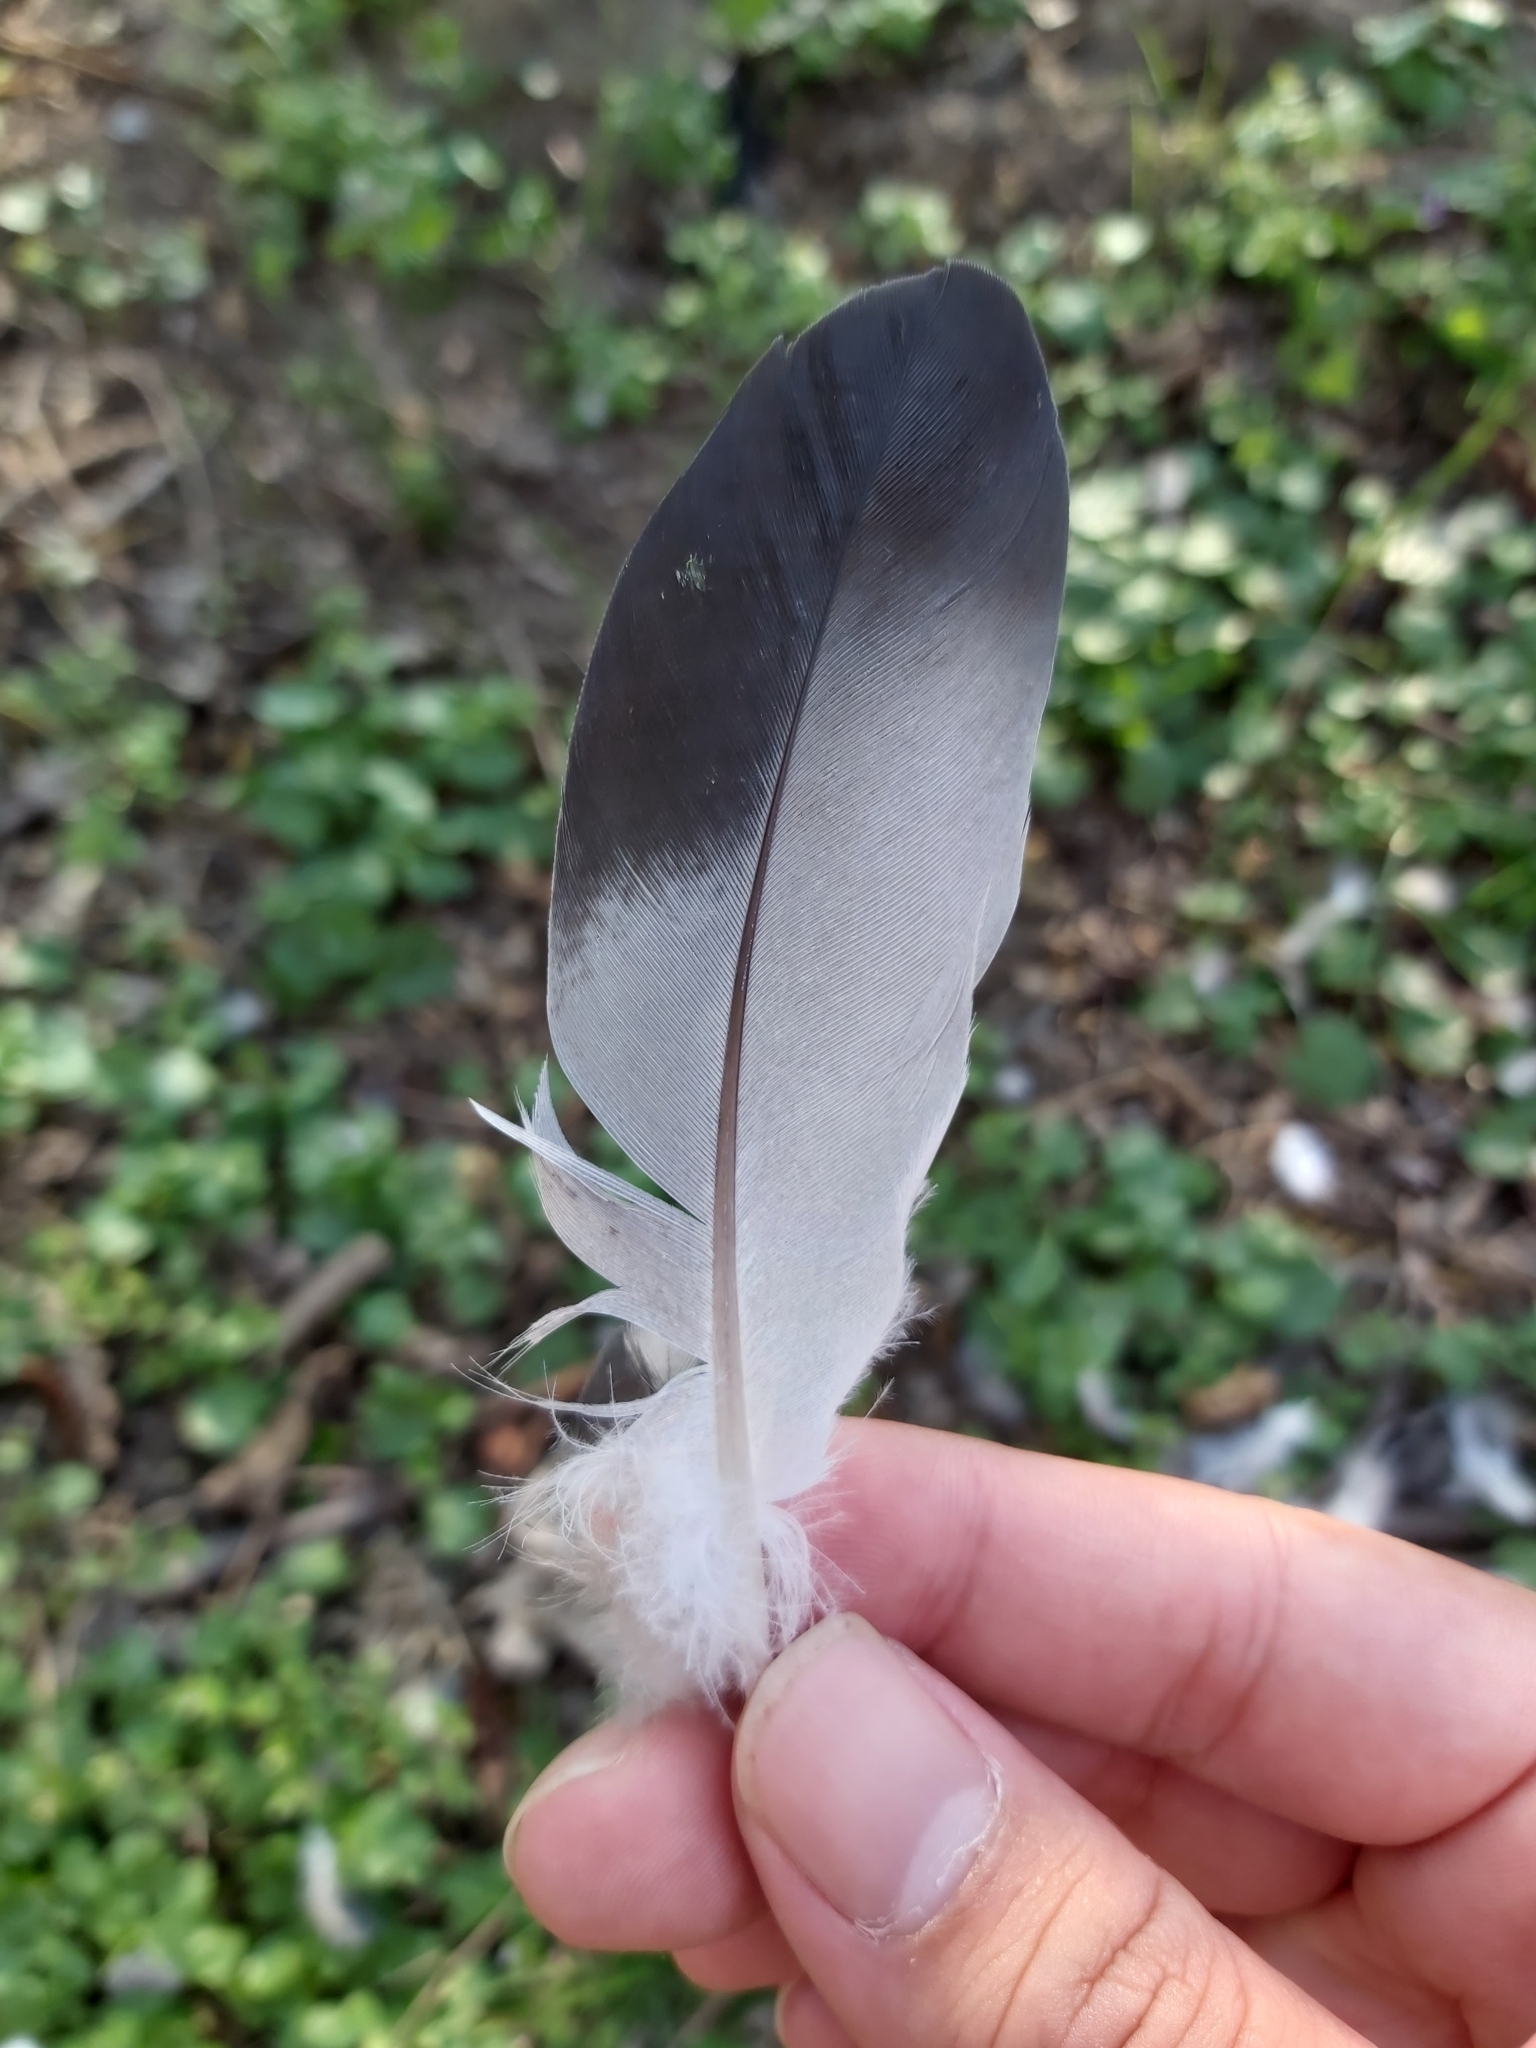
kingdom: Animalia
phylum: Chordata
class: Aves
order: Columbiformes
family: Columbidae
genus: Columba
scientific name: Columba livia
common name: Rock pigeon
